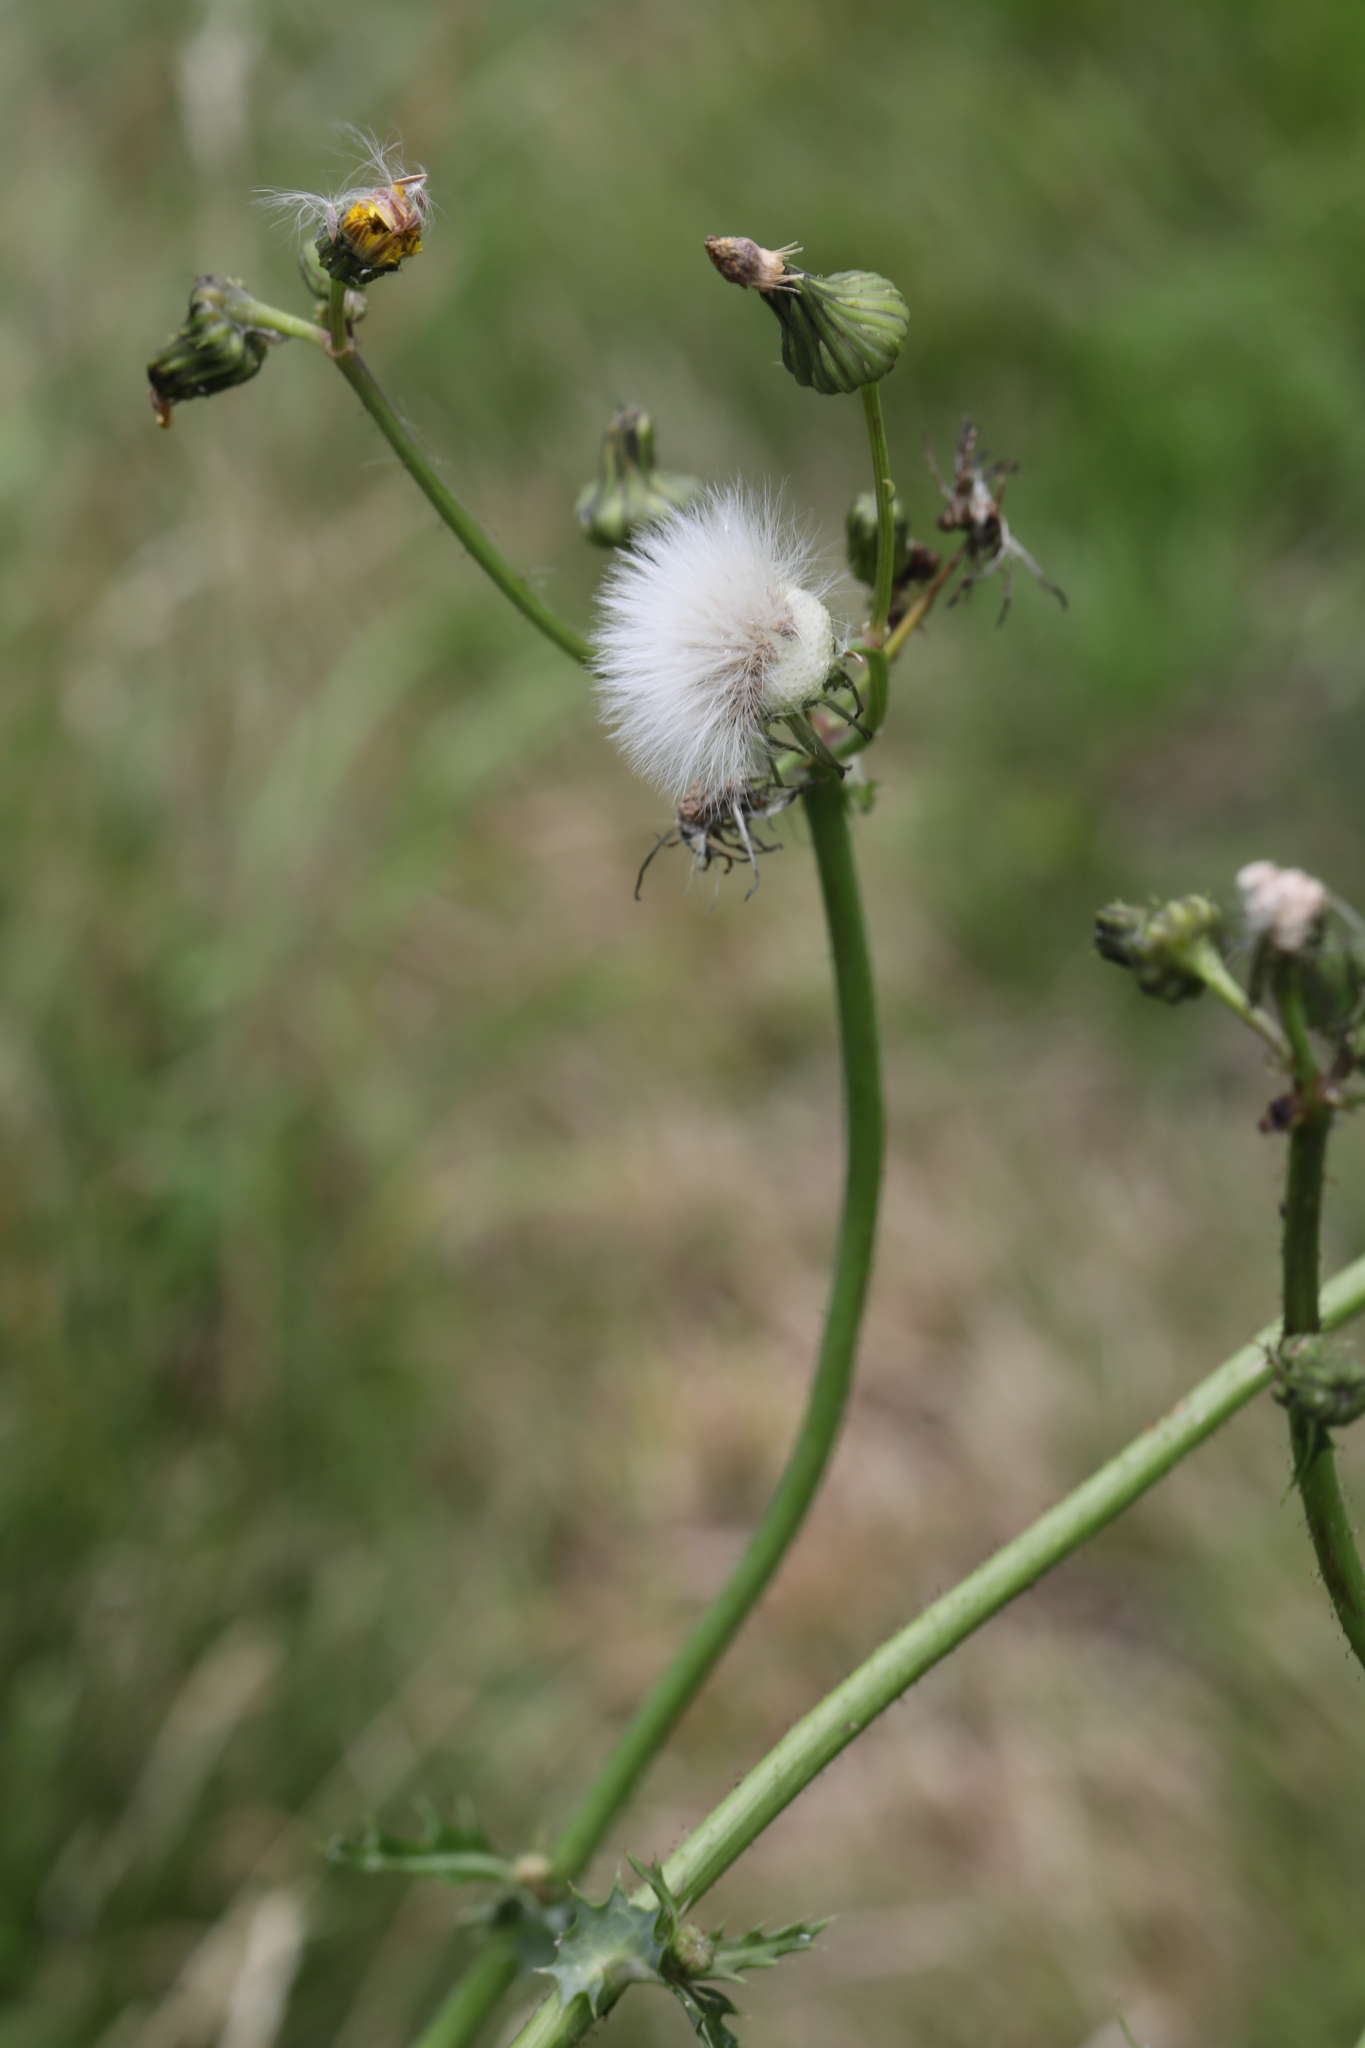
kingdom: Plantae
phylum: Tracheophyta
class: Magnoliopsida
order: Asterales
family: Asteraceae
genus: Sonchus
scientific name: Sonchus asper
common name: Prickly sow-thistle
